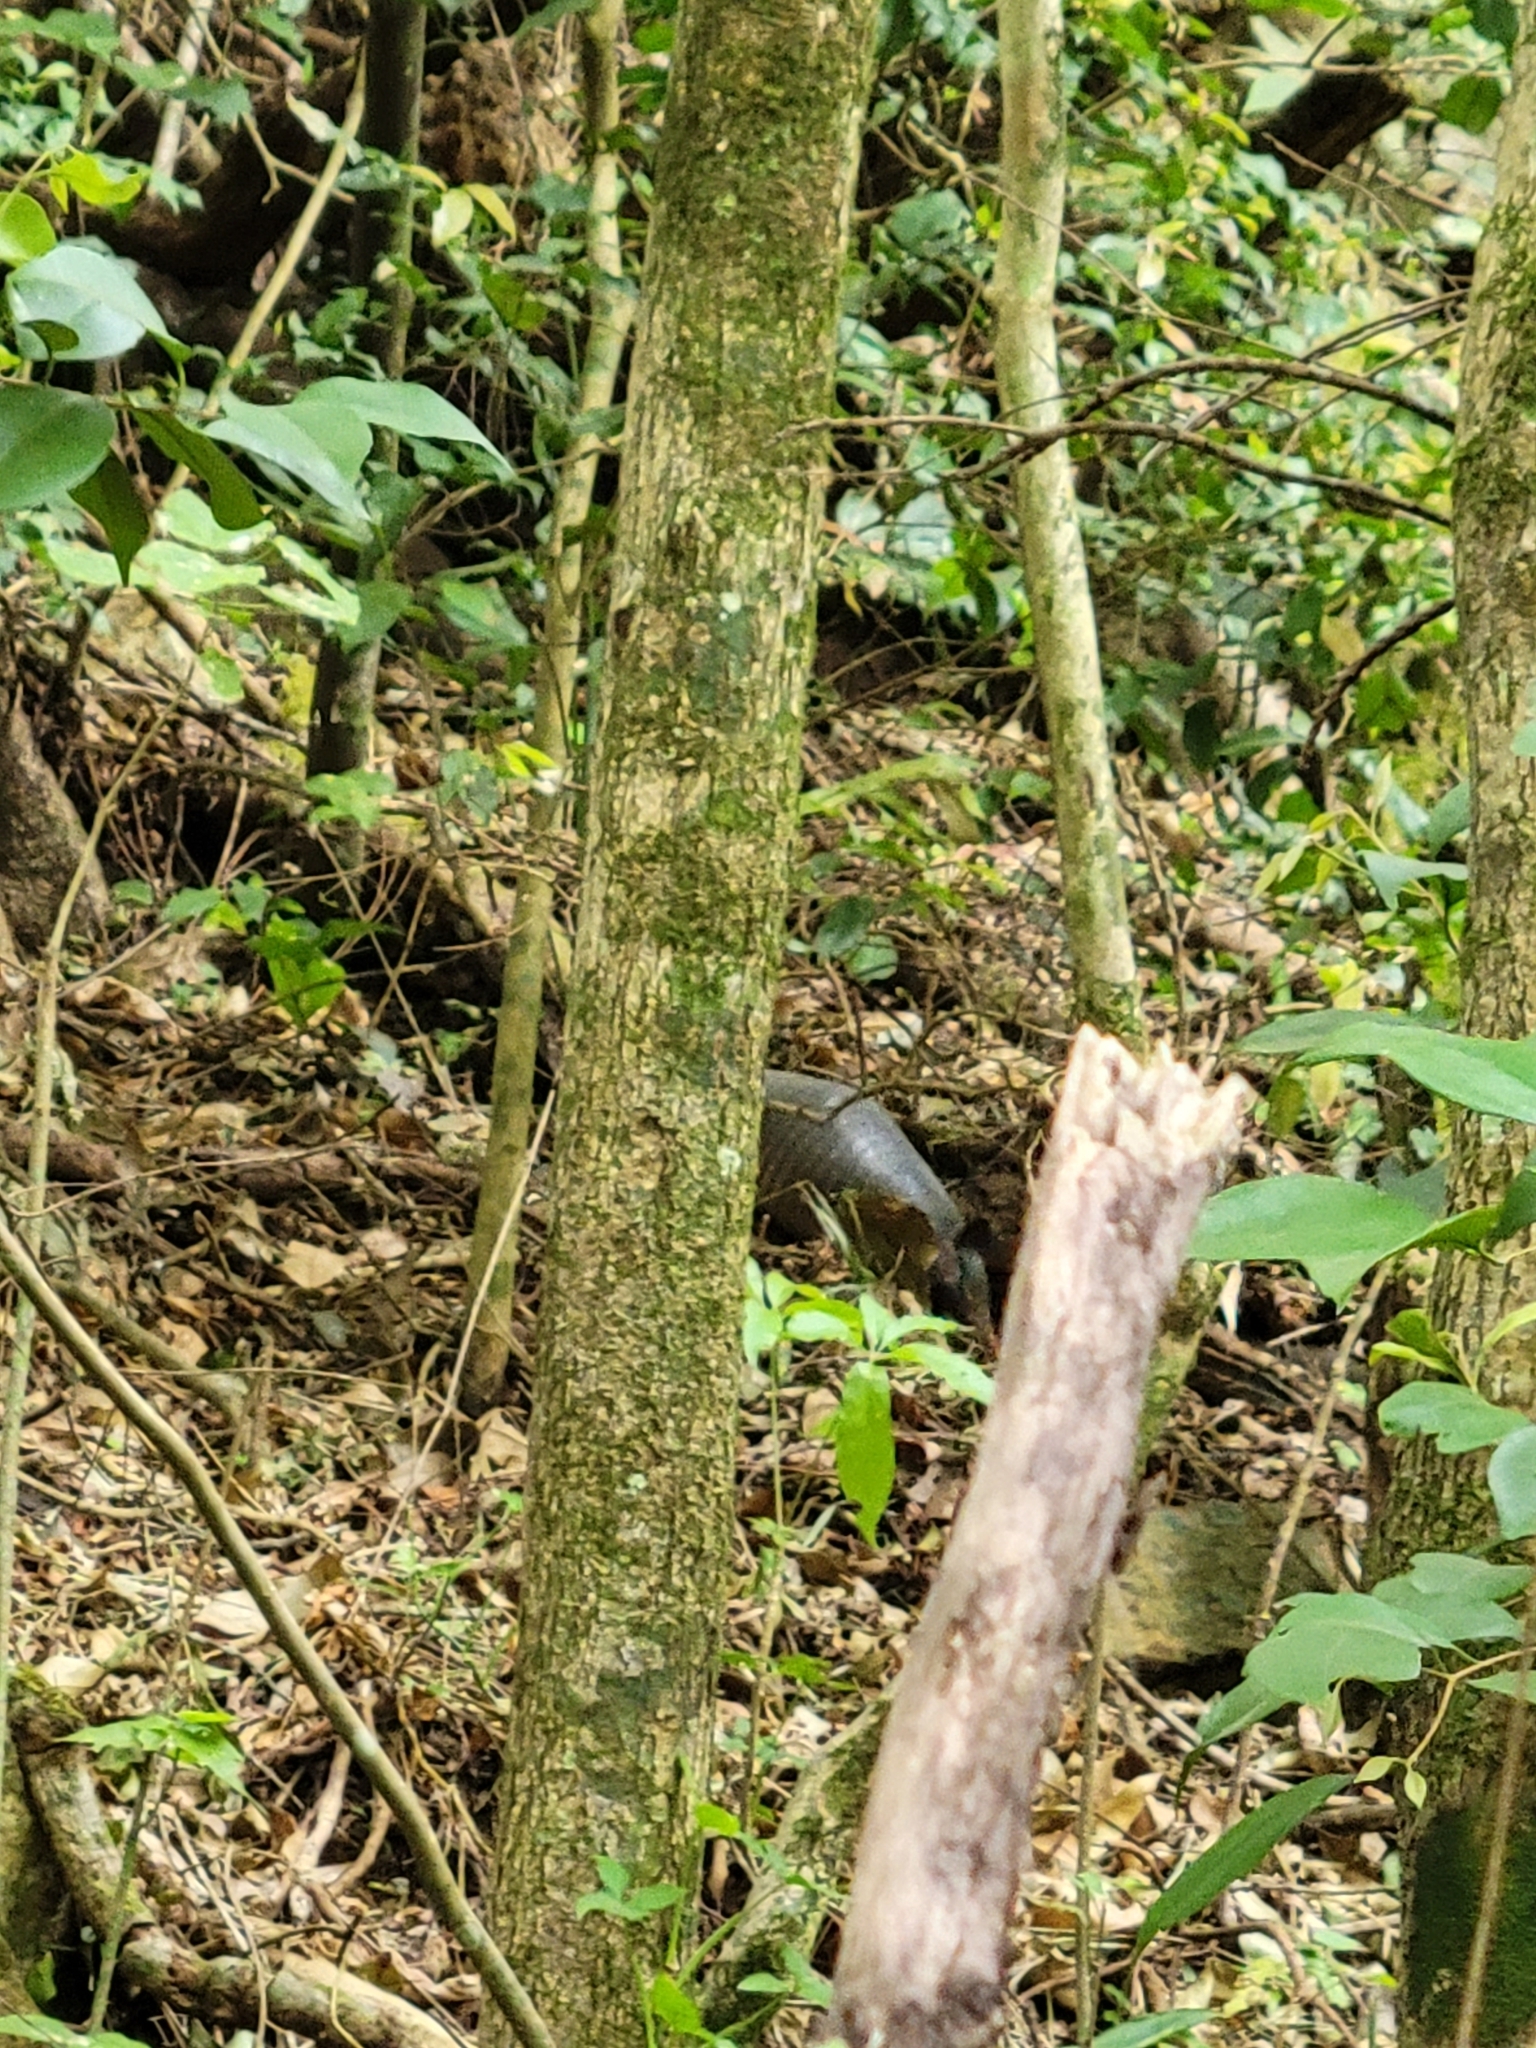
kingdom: Animalia
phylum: Chordata
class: Mammalia
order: Cingulata
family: Dasypodidae
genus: Dasypus
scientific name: Dasypus novemcinctus
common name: Nine-banded armadillo
